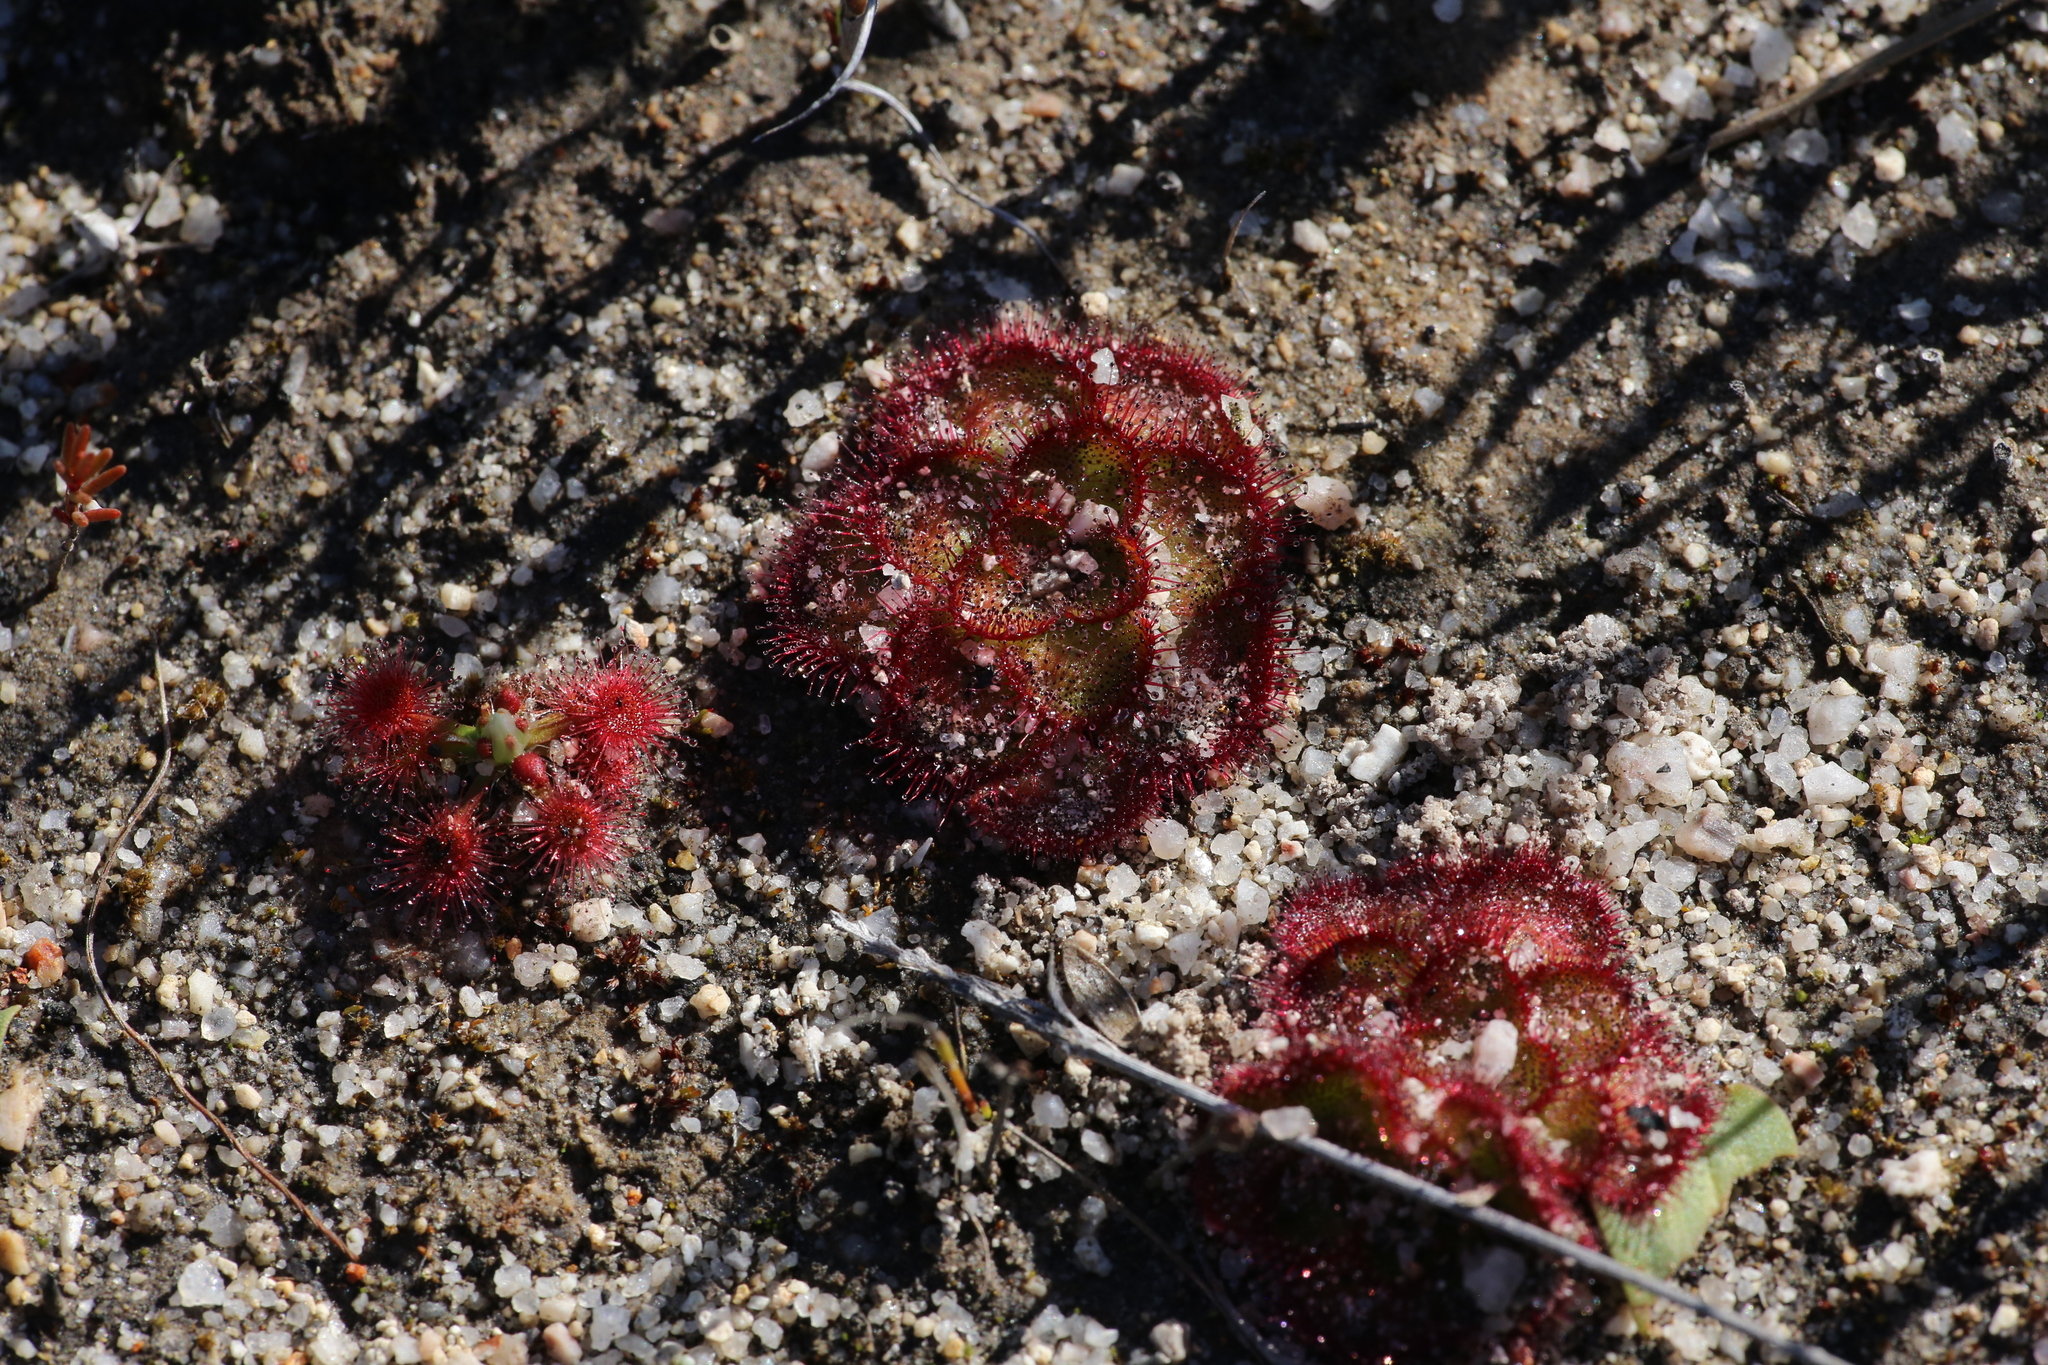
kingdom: Plantae
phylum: Tracheophyta
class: Magnoliopsida
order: Caryophyllales
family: Droseraceae
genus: Drosera
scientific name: Drosera zonaria
